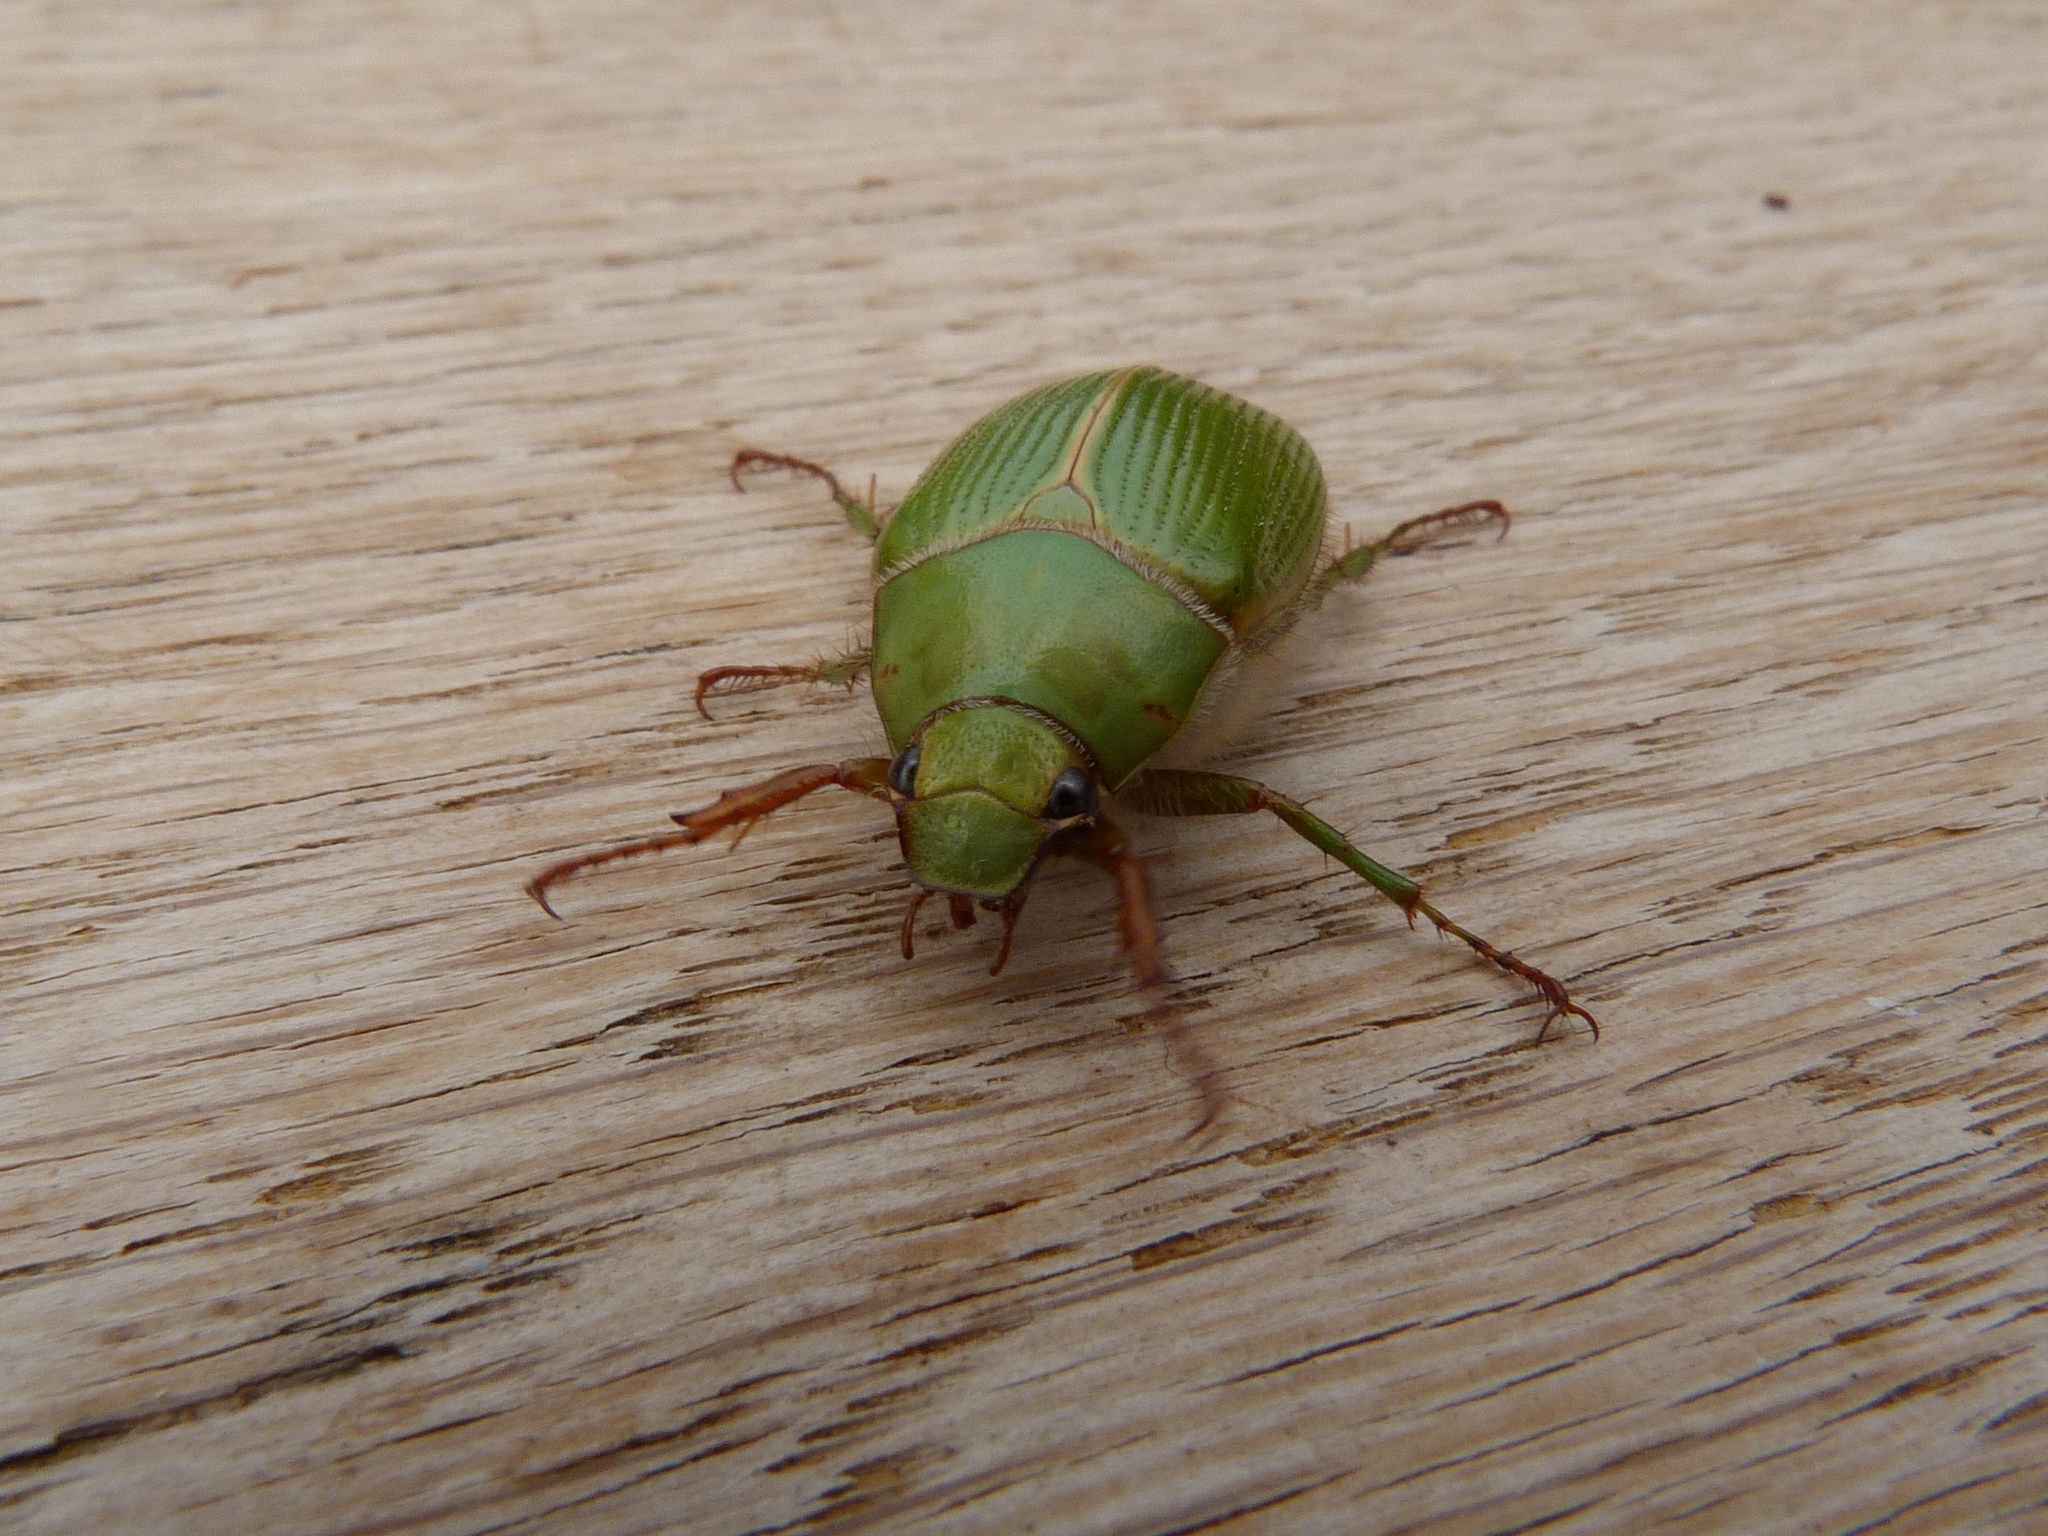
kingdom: Animalia
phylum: Arthropoda
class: Insecta
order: Coleoptera
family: Scarabaeidae
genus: Xylonichus
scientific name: Xylonichus eucalypti
